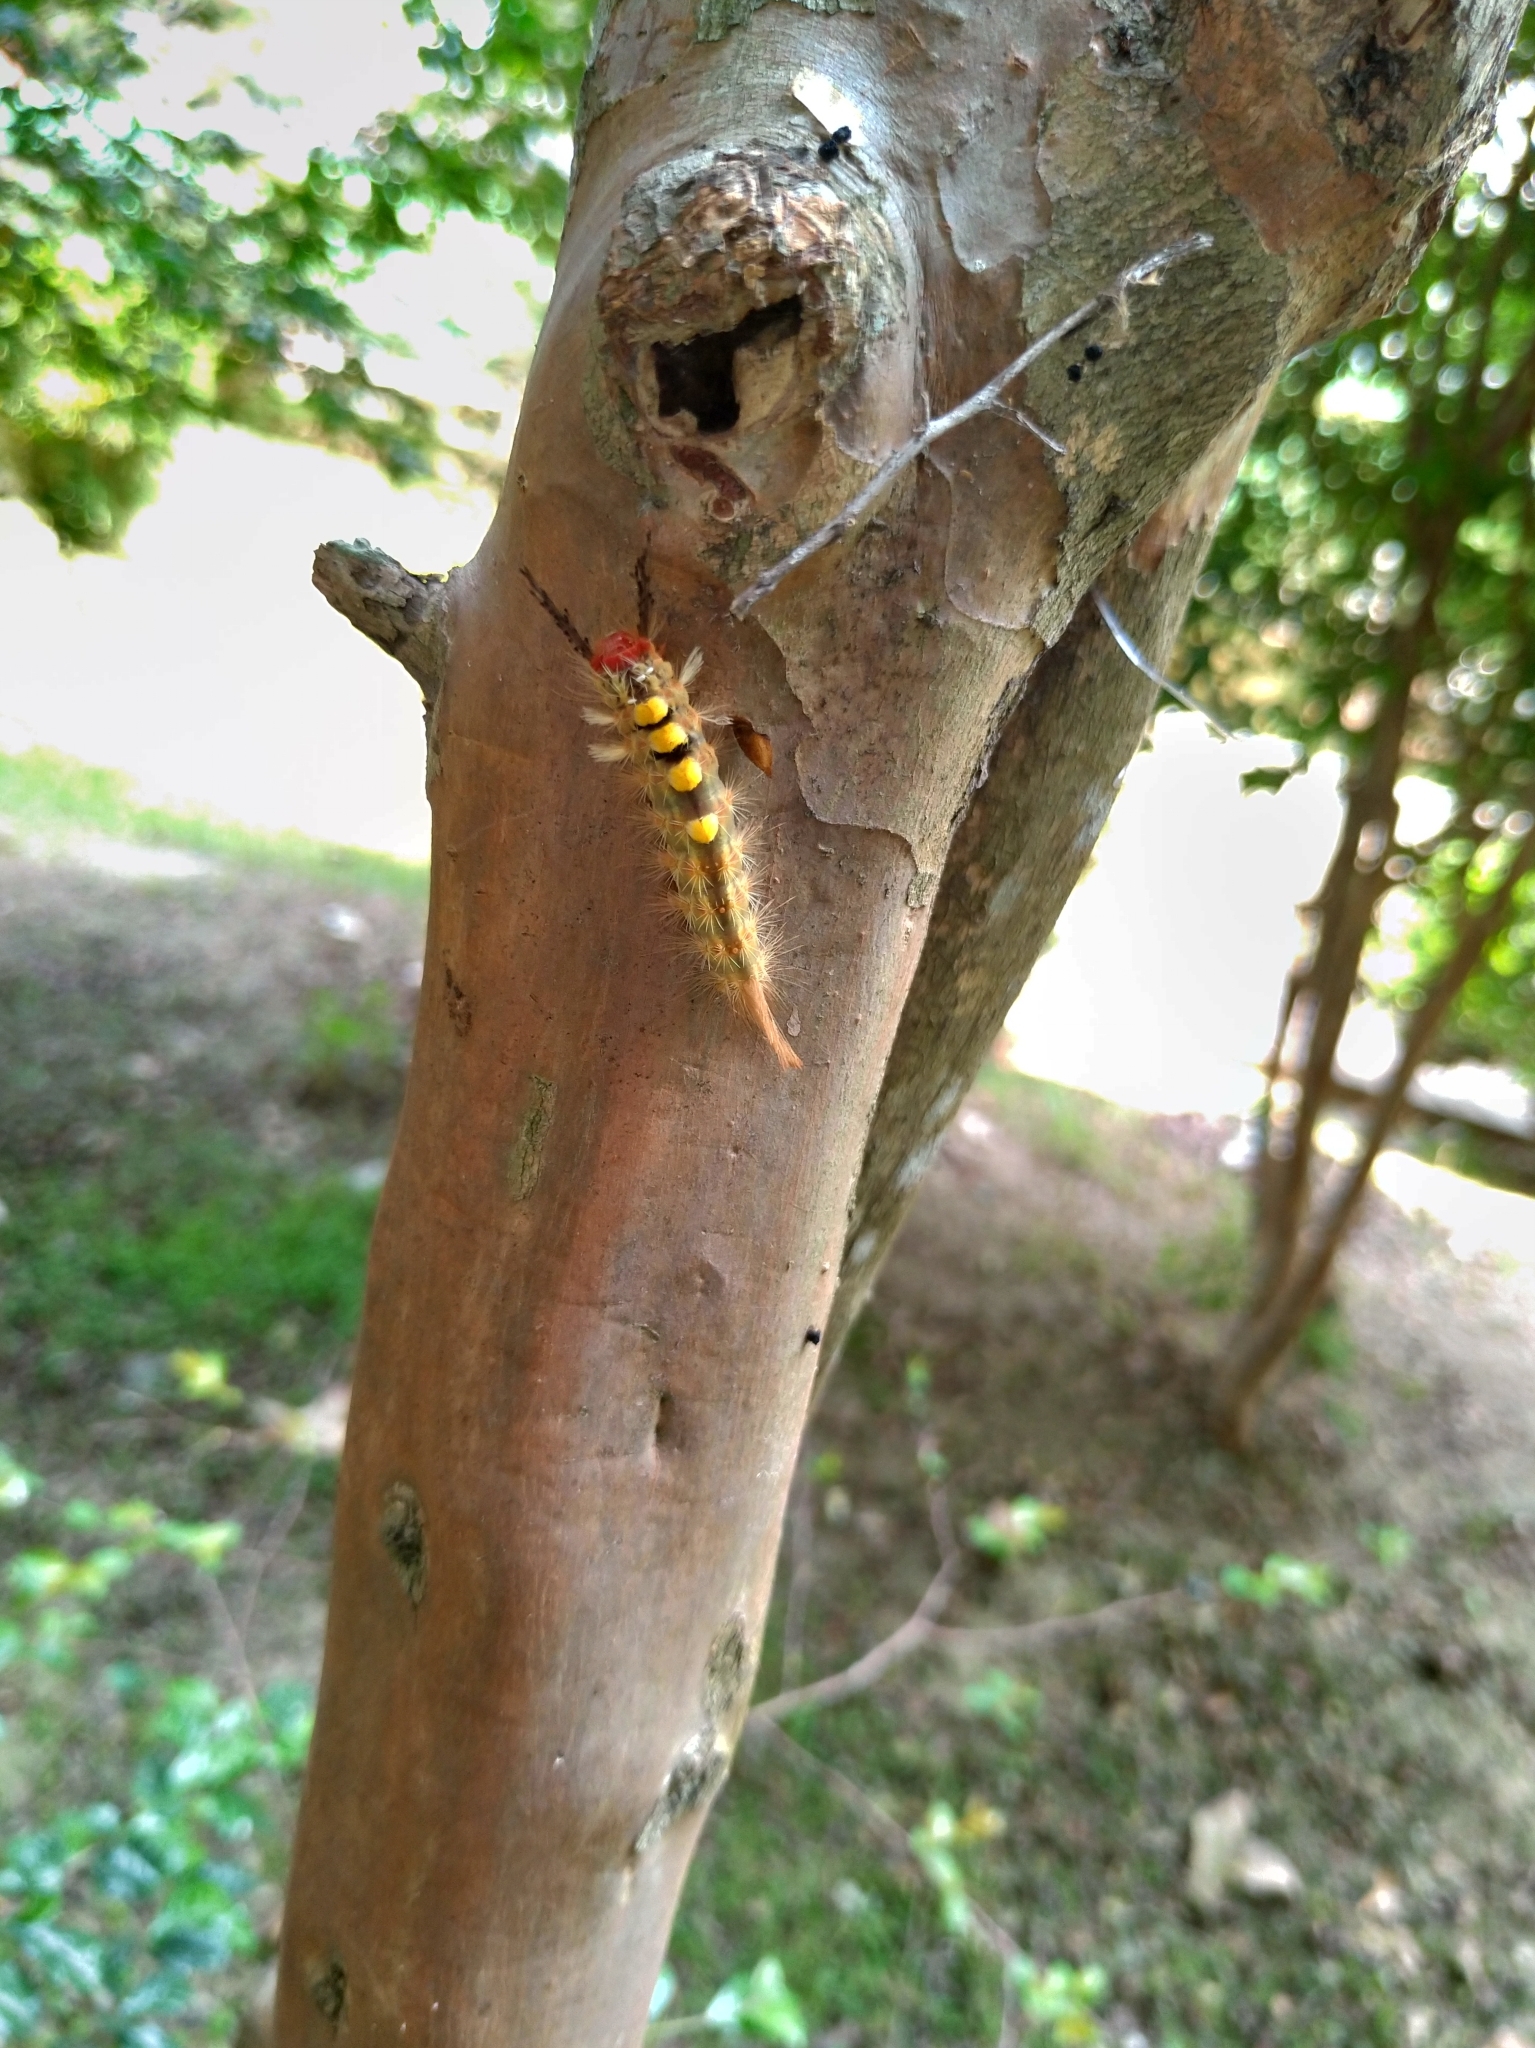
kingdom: Animalia
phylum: Arthropoda
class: Insecta
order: Lepidoptera
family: Erebidae
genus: Orgyia
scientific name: Orgyia postica
